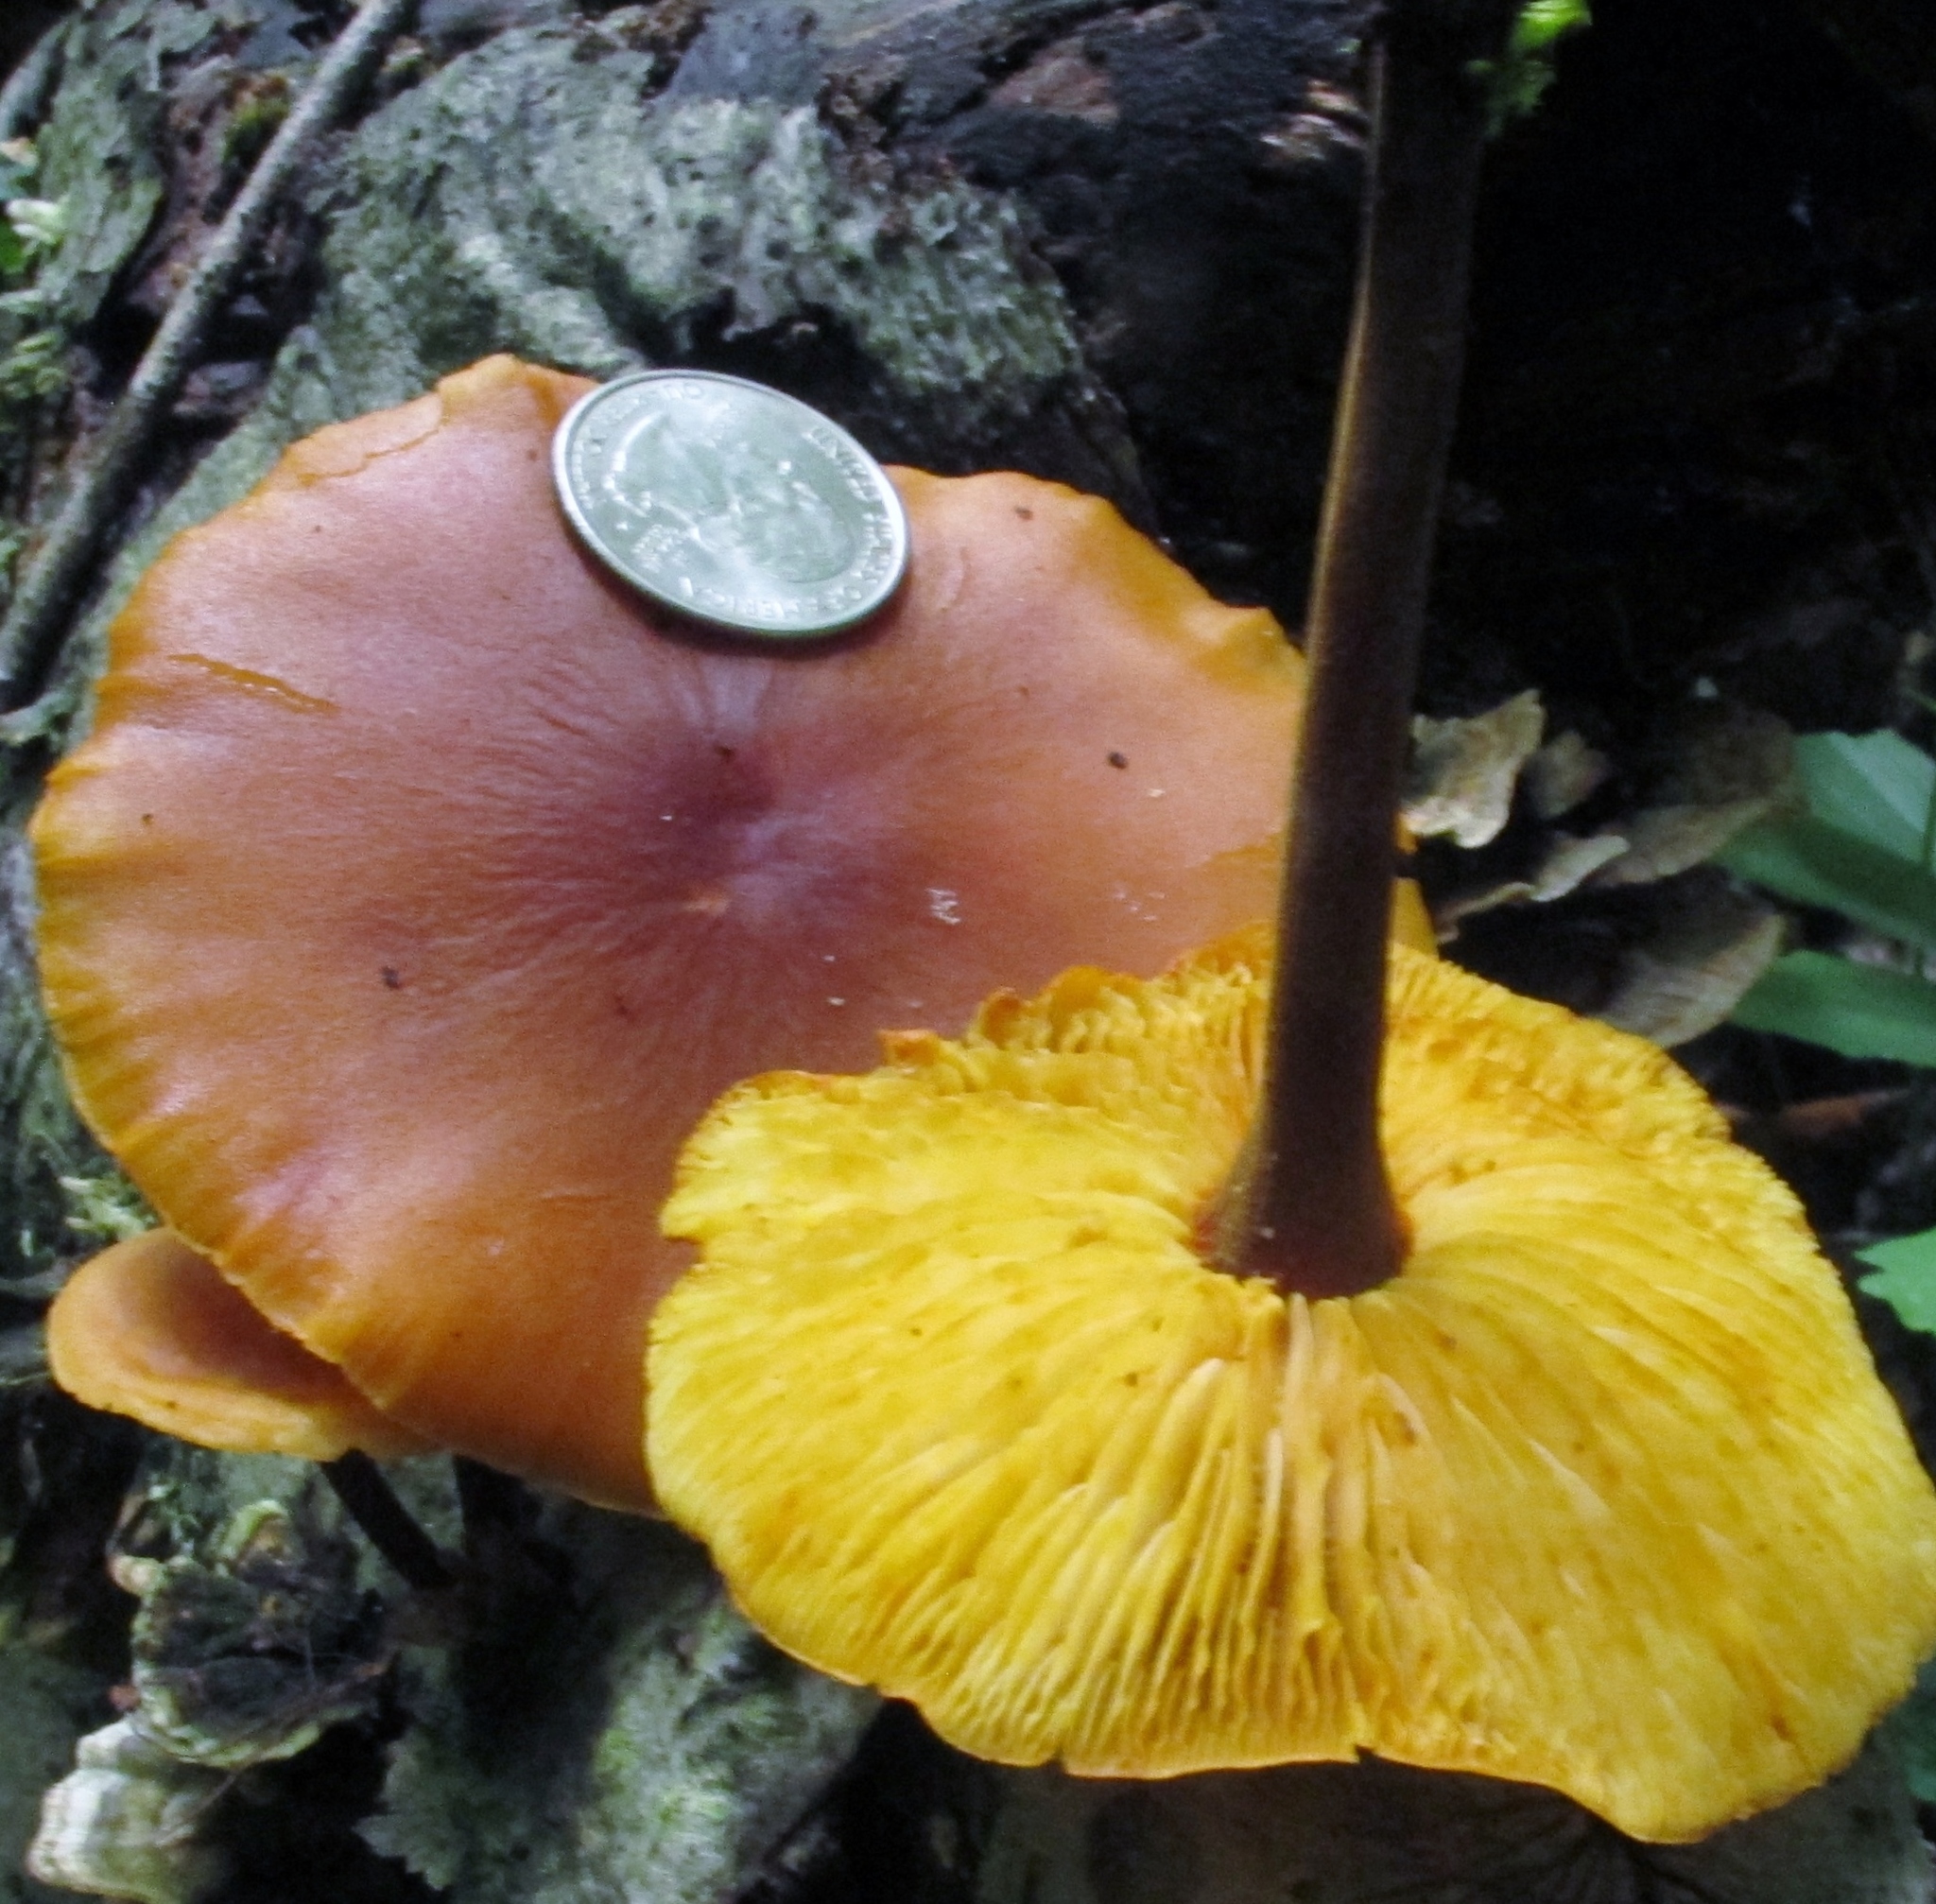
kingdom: Fungi
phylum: Basidiomycota
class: Agaricomycetes
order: Agaricales
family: Mycenaceae
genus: Xeromphalina
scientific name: Xeromphalina tenuipes
